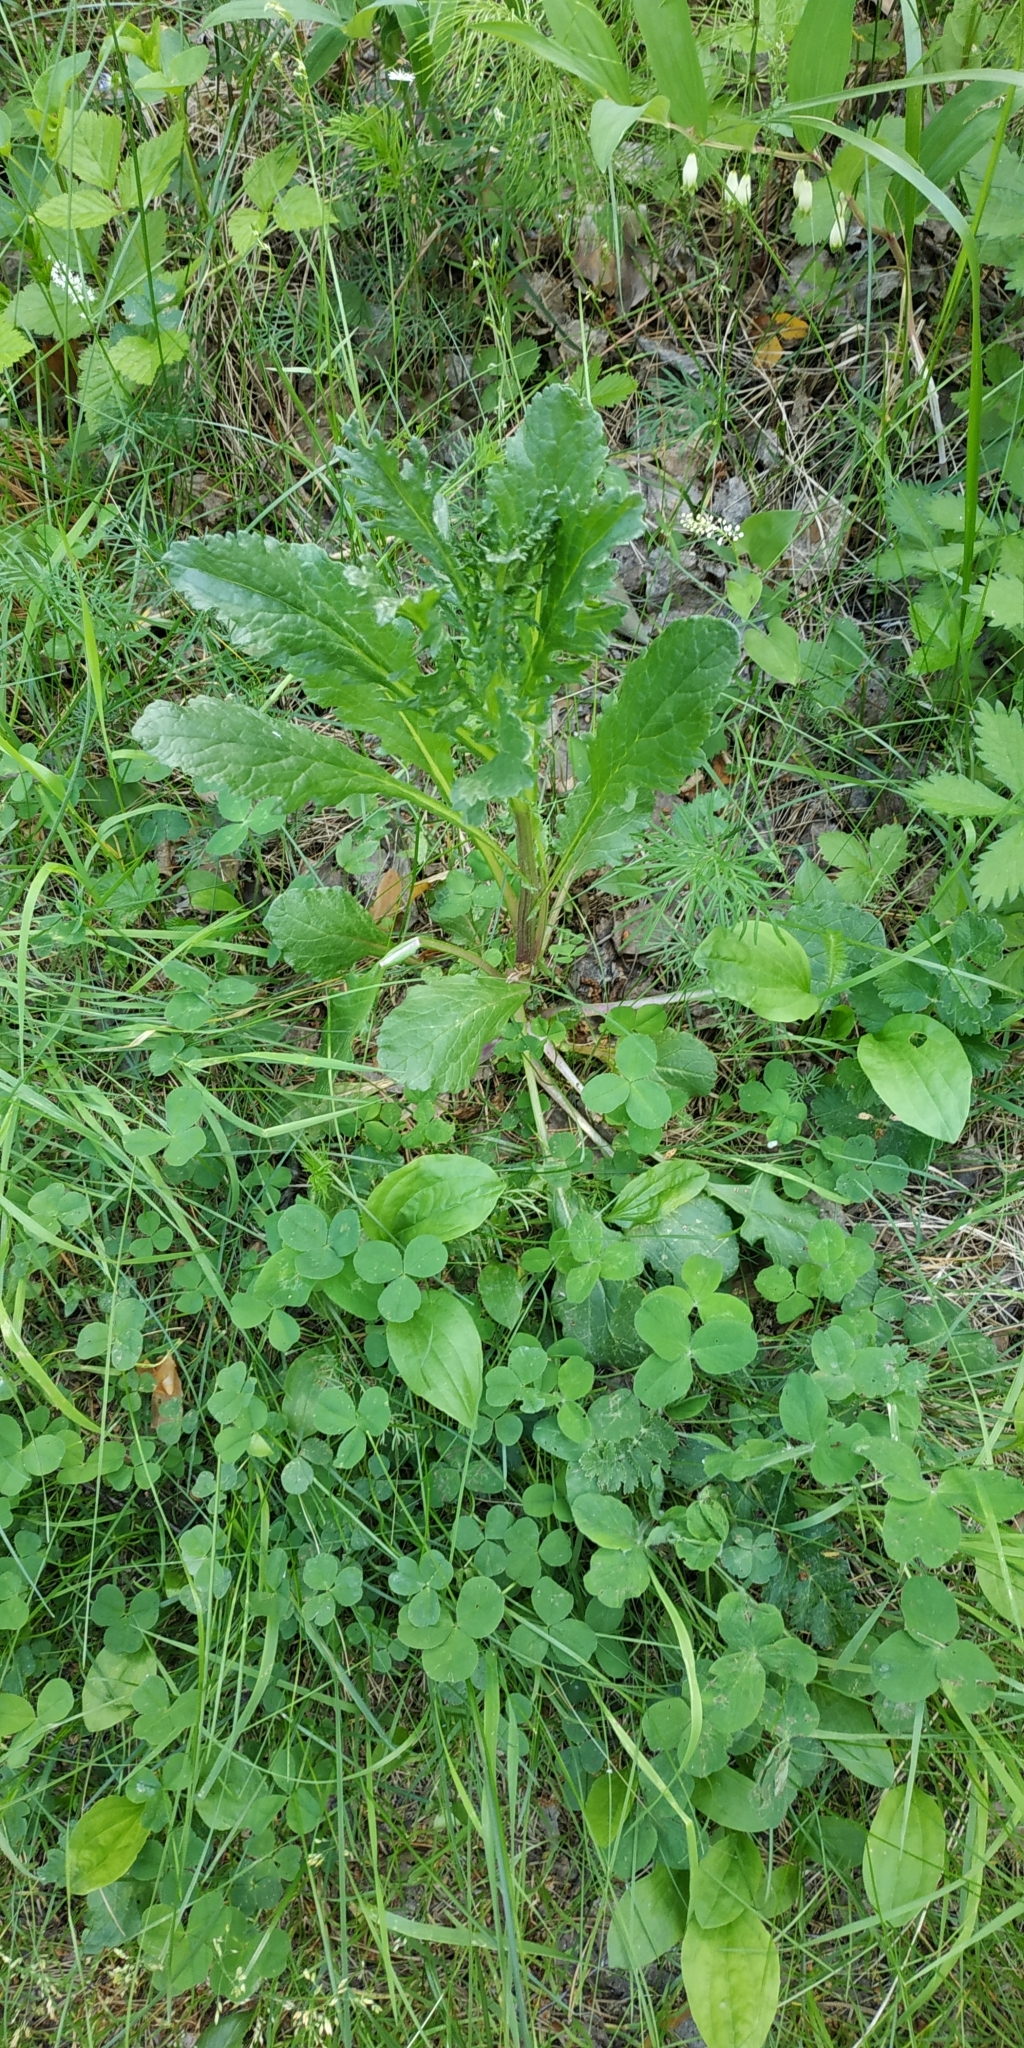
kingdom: Plantae
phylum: Tracheophyta
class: Magnoliopsida
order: Asterales
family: Asteraceae
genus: Jacobaea
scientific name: Jacobaea vulgaris
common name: Stinking willie
